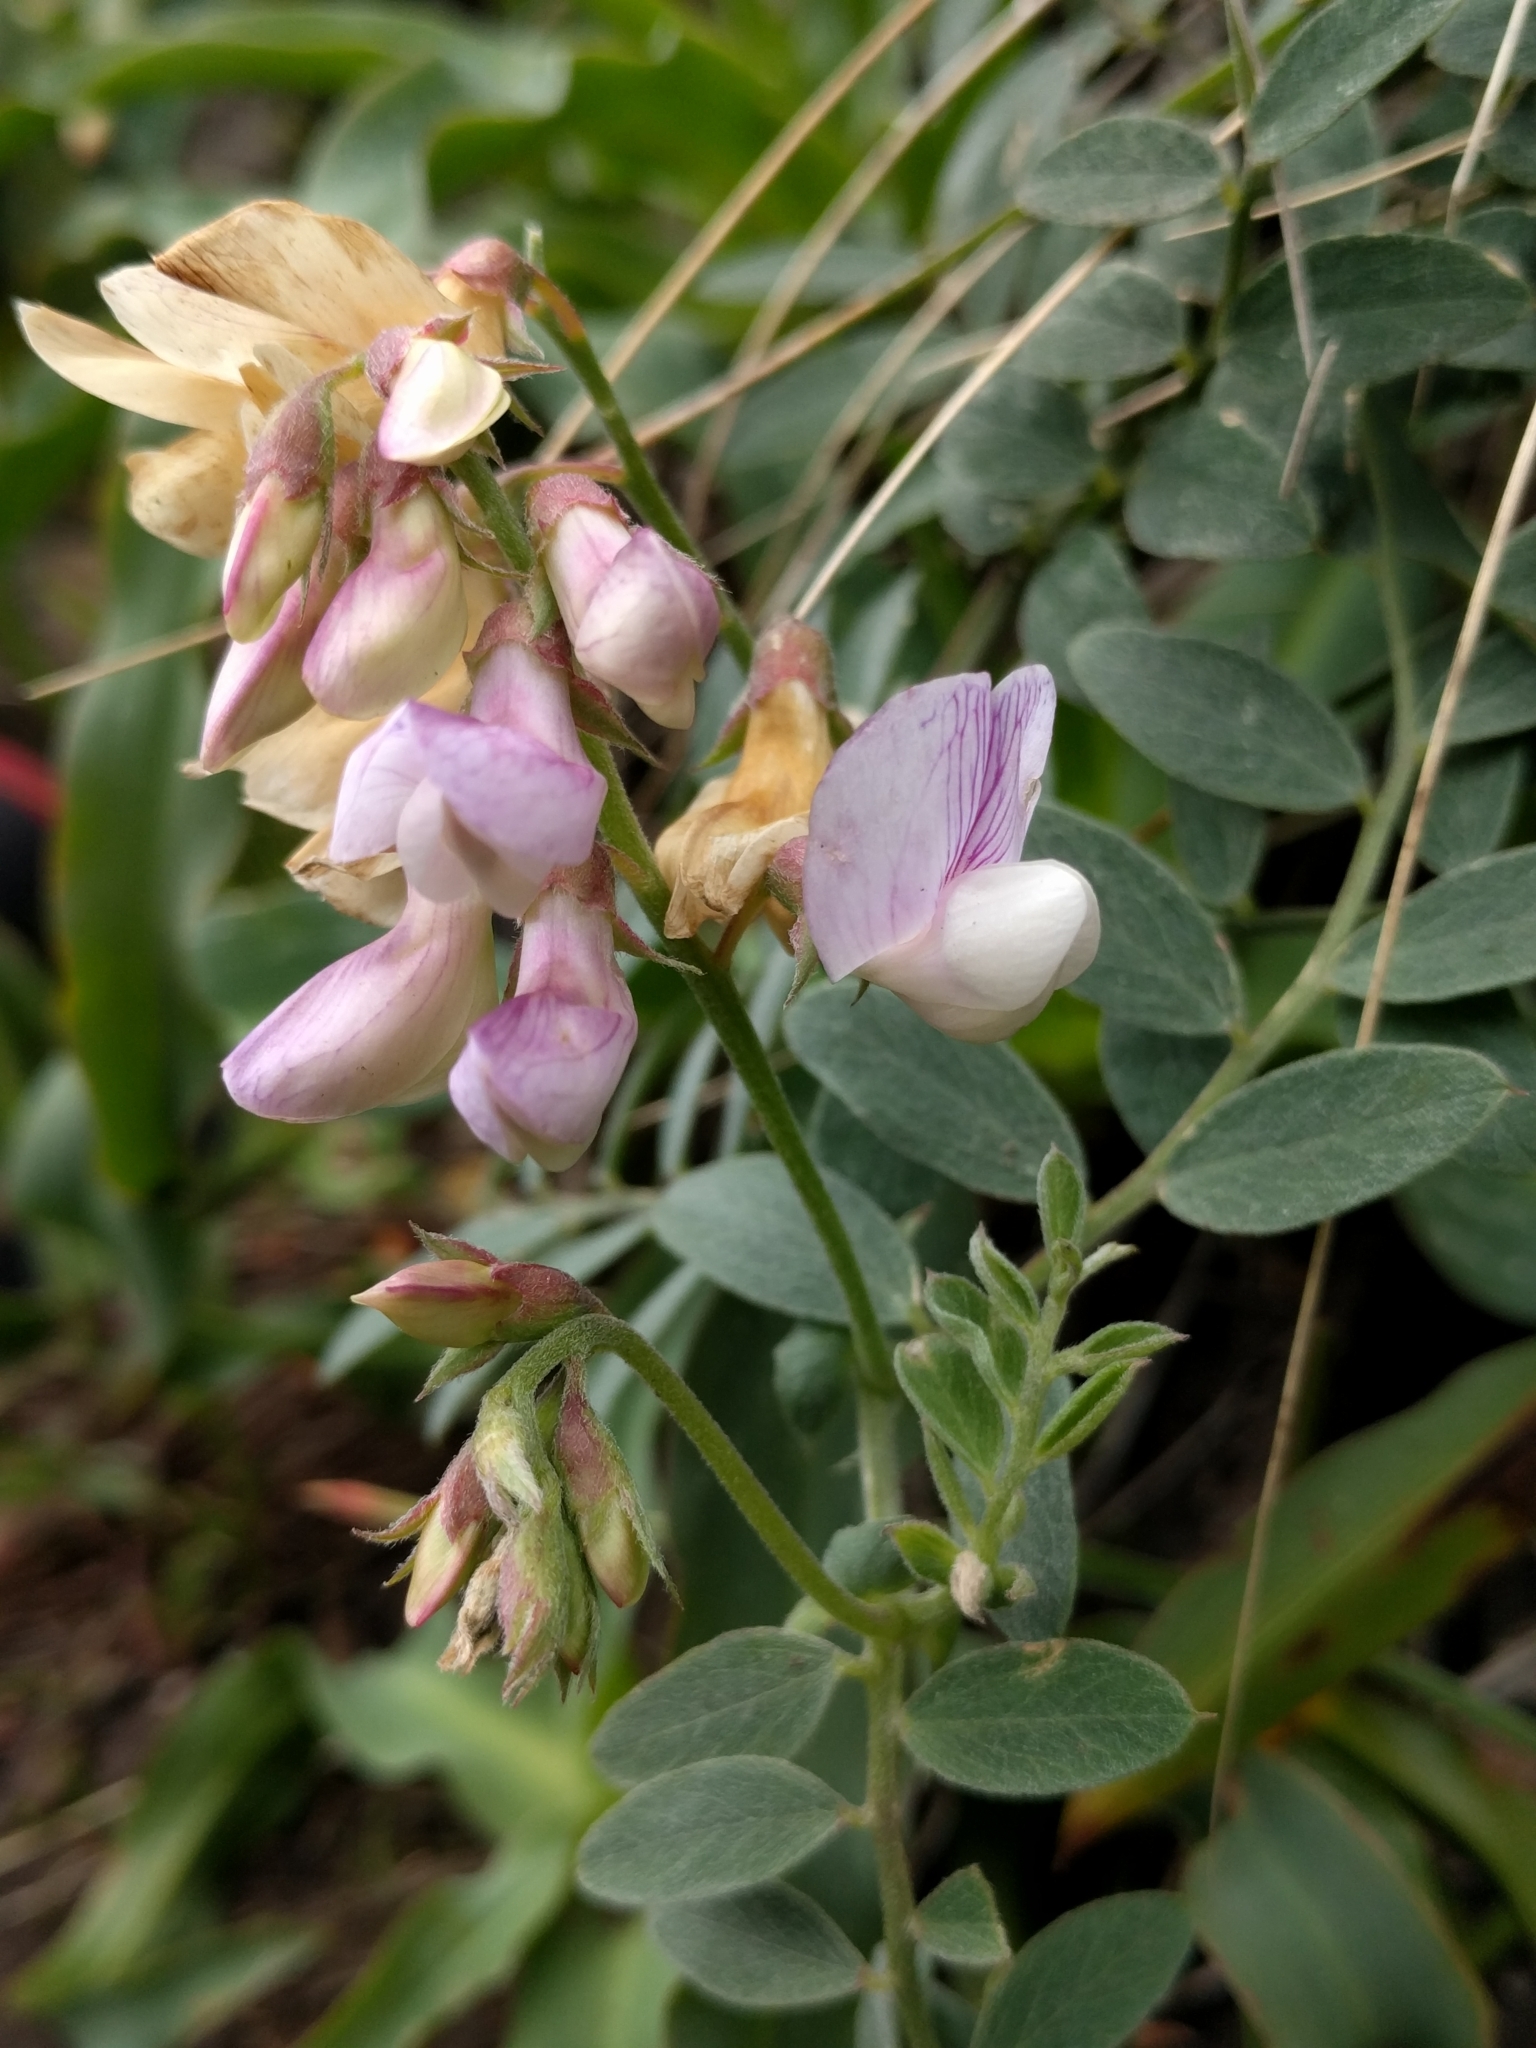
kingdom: Plantae
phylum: Tracheophyta
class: Magnoliopsida
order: Fabales
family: Fabaceae
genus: Lathyrus
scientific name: Lathyrus vestitus
